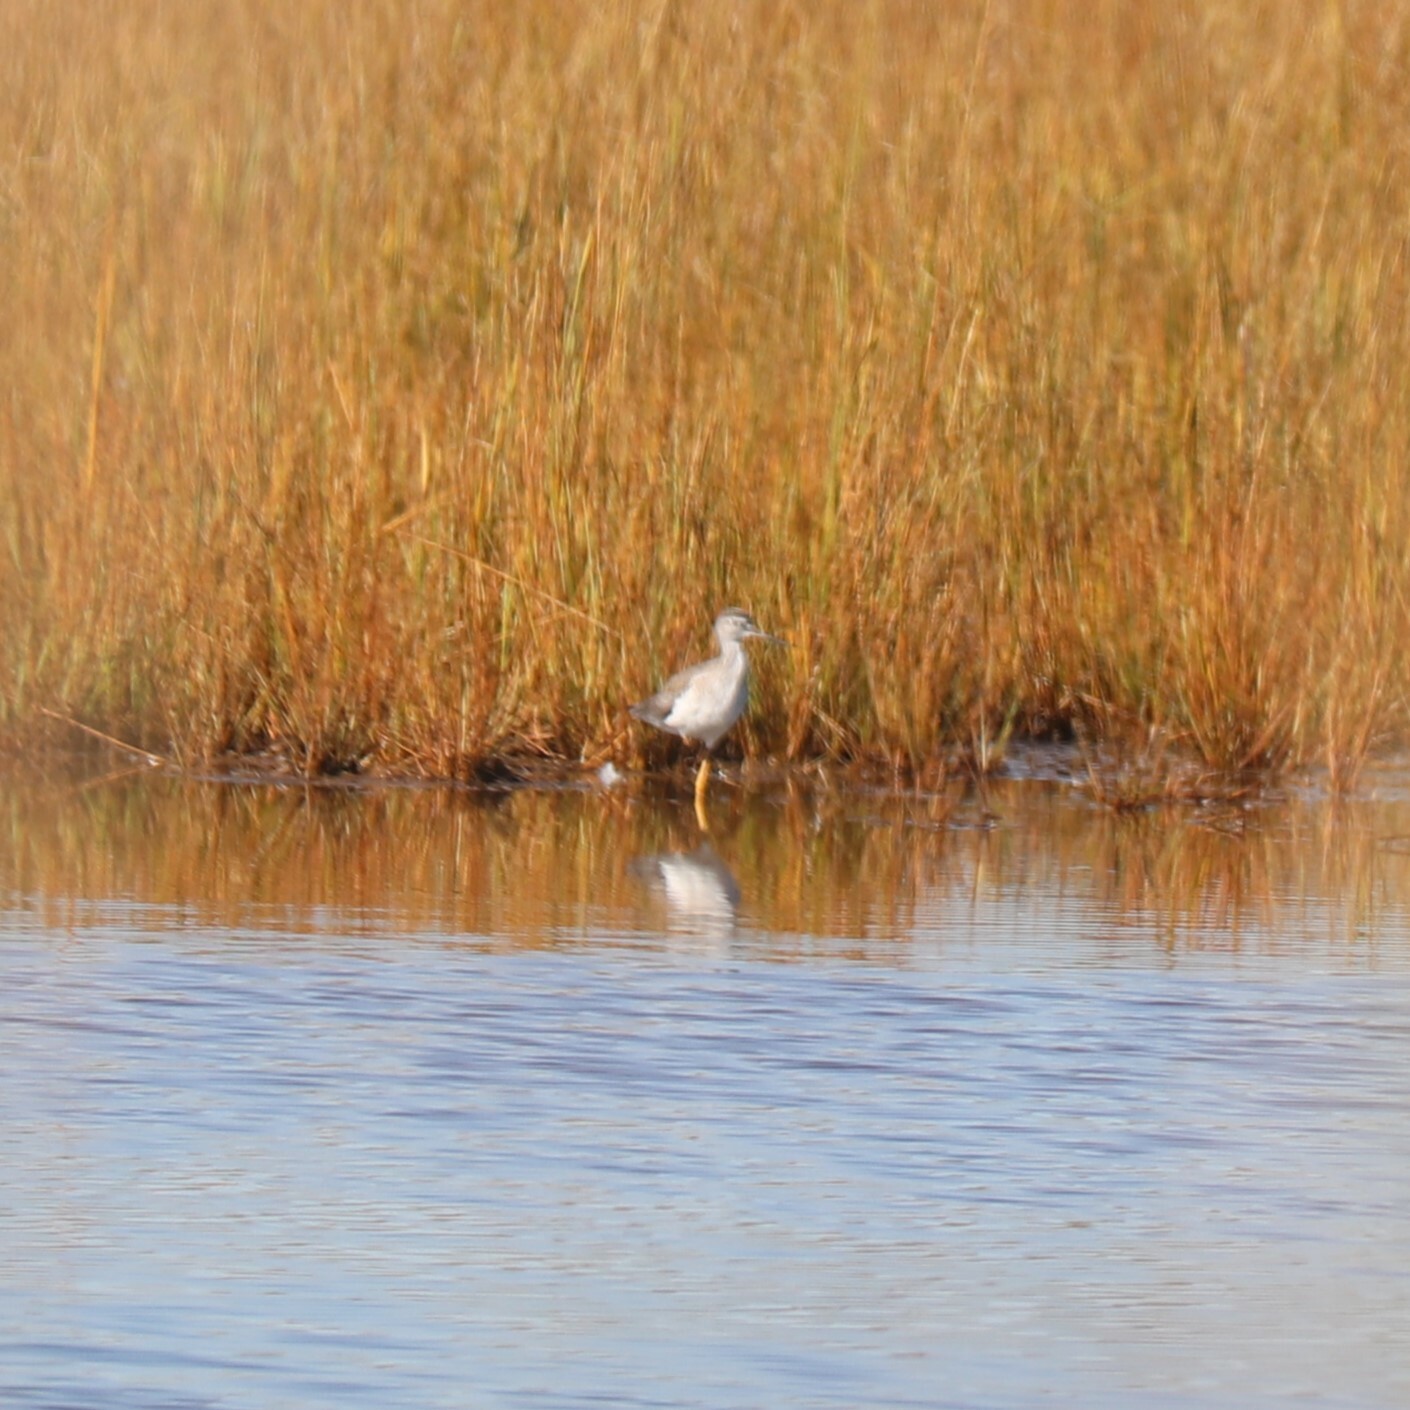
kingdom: Animalia
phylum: Chordata
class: Aves
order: Charadriiformes
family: Scolopacidae
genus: Tringa
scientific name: Tringa melanoleuca
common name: Greater yellowlegs
